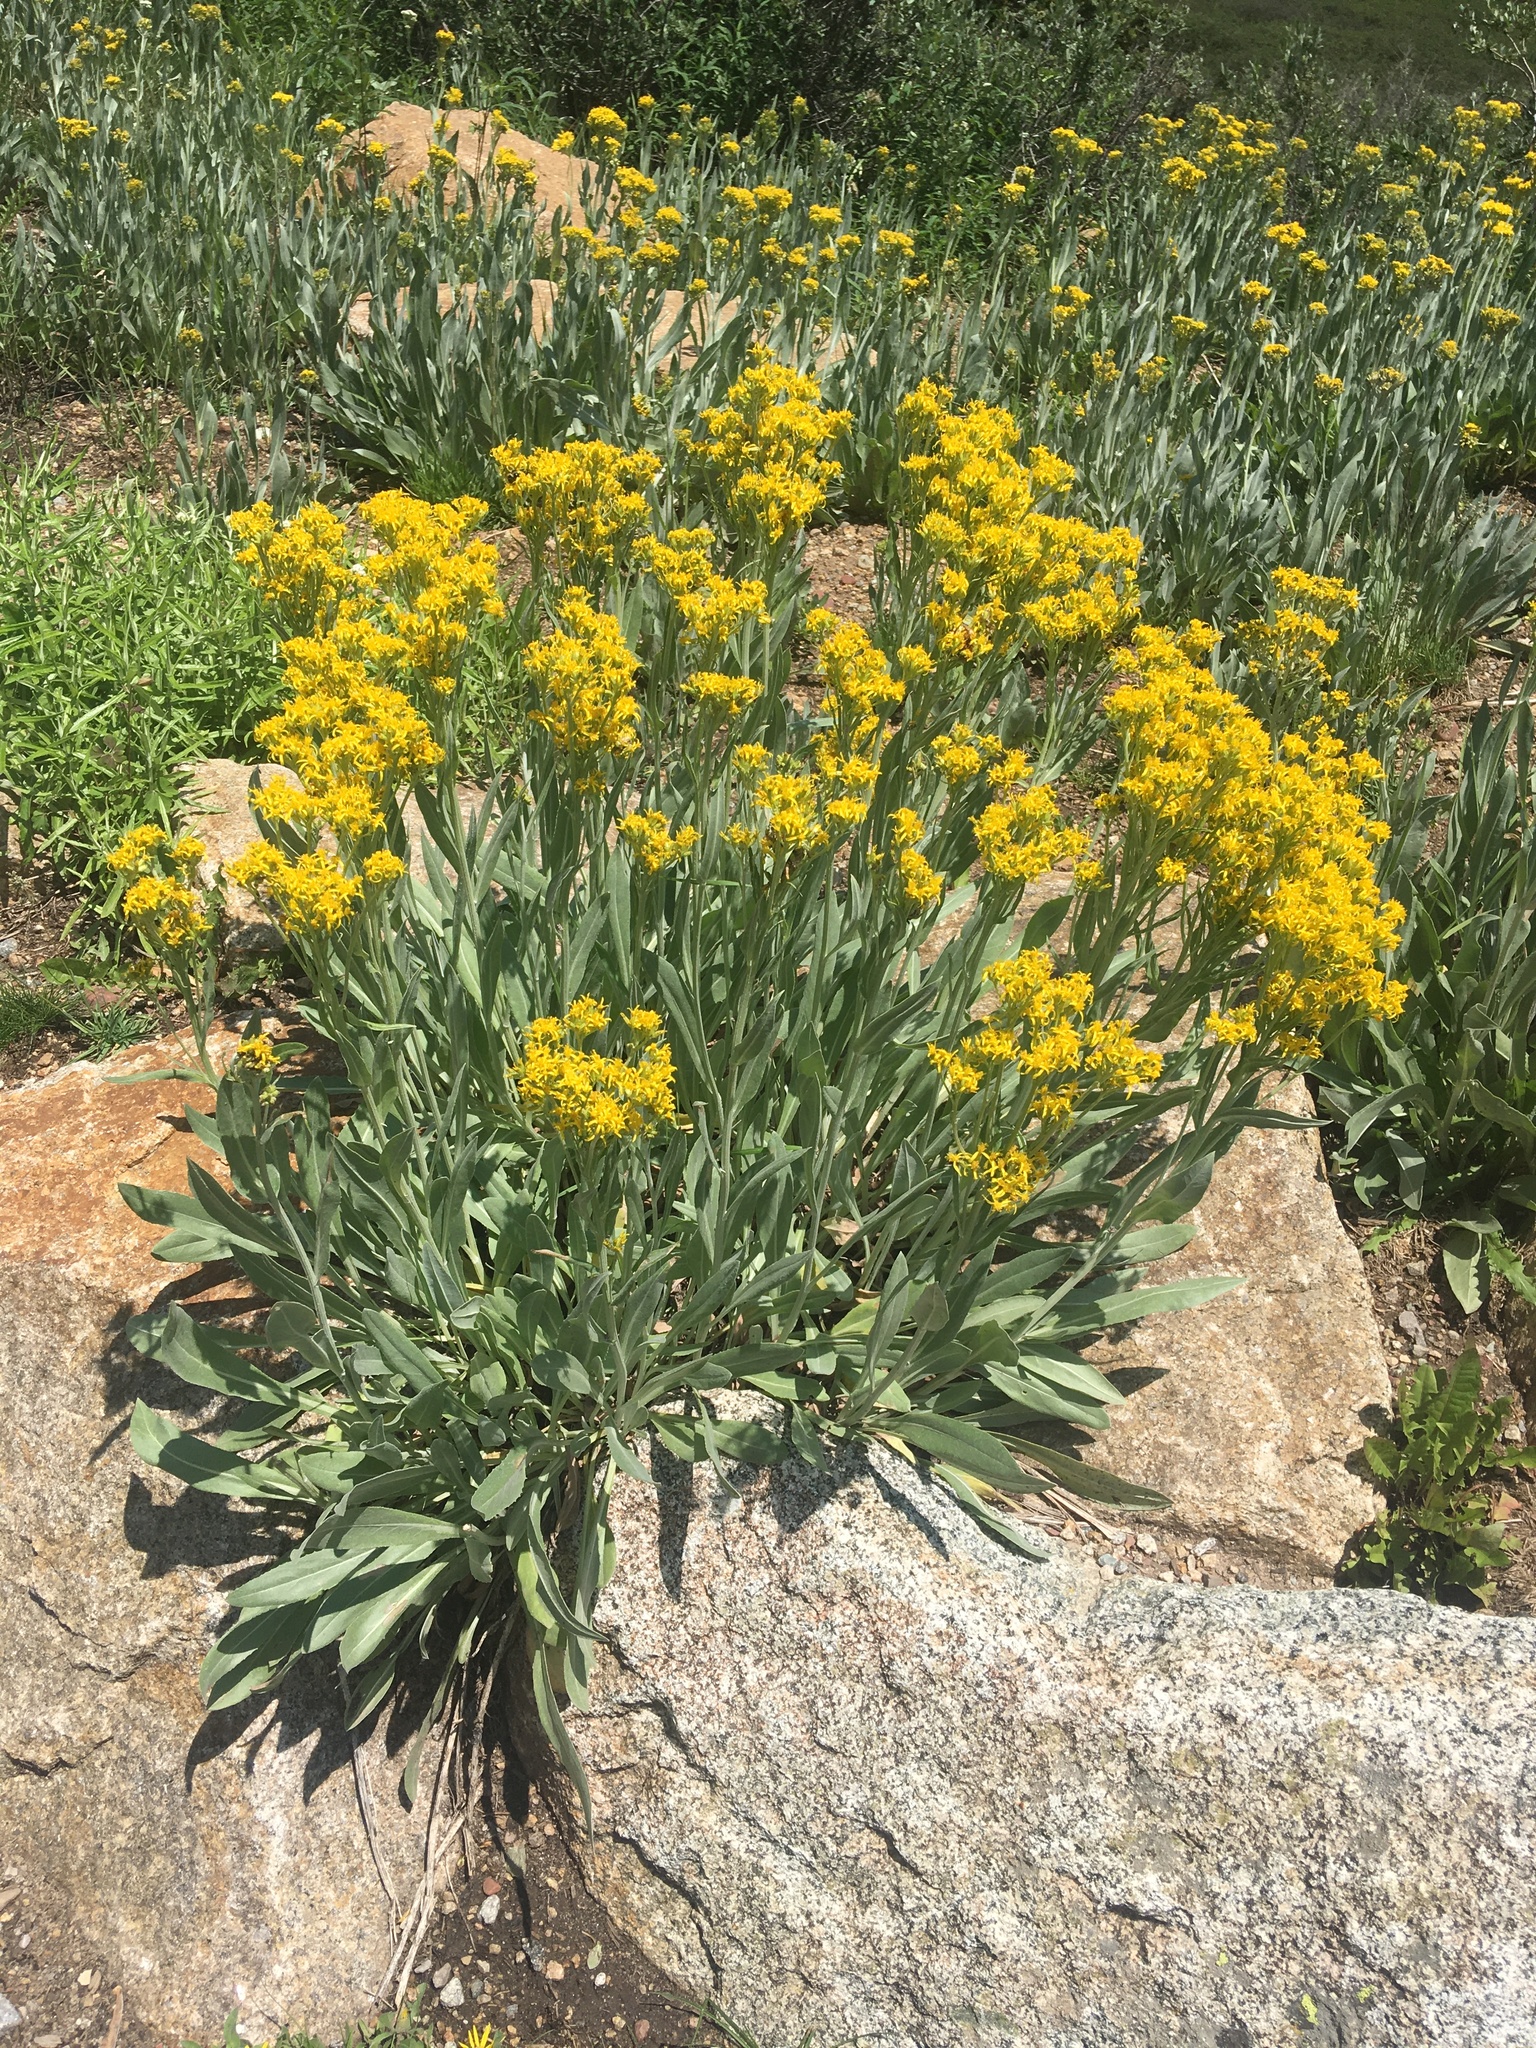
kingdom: Plantae
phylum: Tracheophyta
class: Magnoliopsida
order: Asterales
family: Asteraceae
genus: Senecio
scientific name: Senecio atratus
